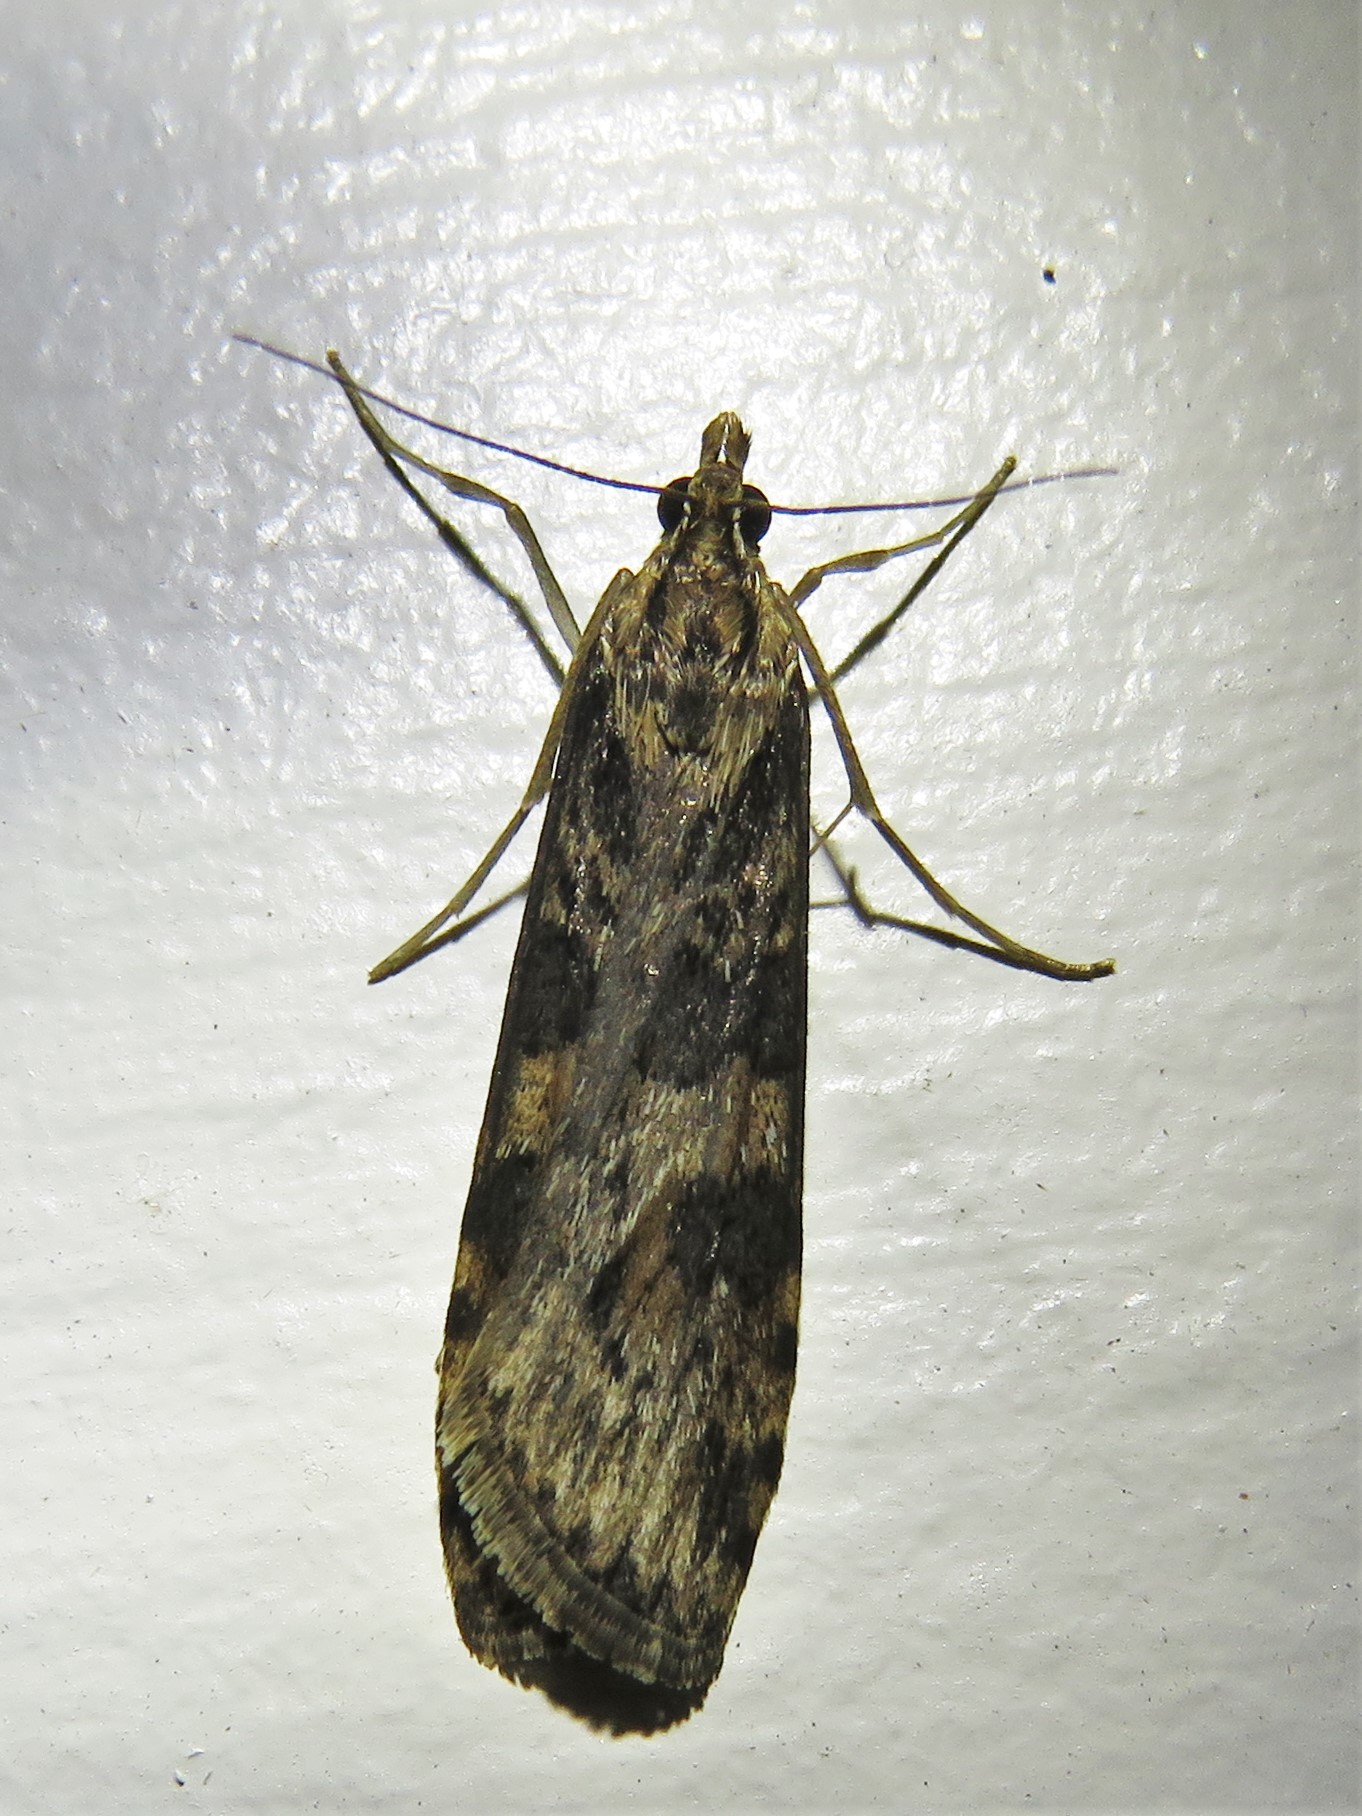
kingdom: Animalia
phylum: Arthropoda
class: Insecta
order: Lepidoptera
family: Crambidae
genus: Nomophila
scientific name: Nomophila nearctica
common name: American rush veneer
